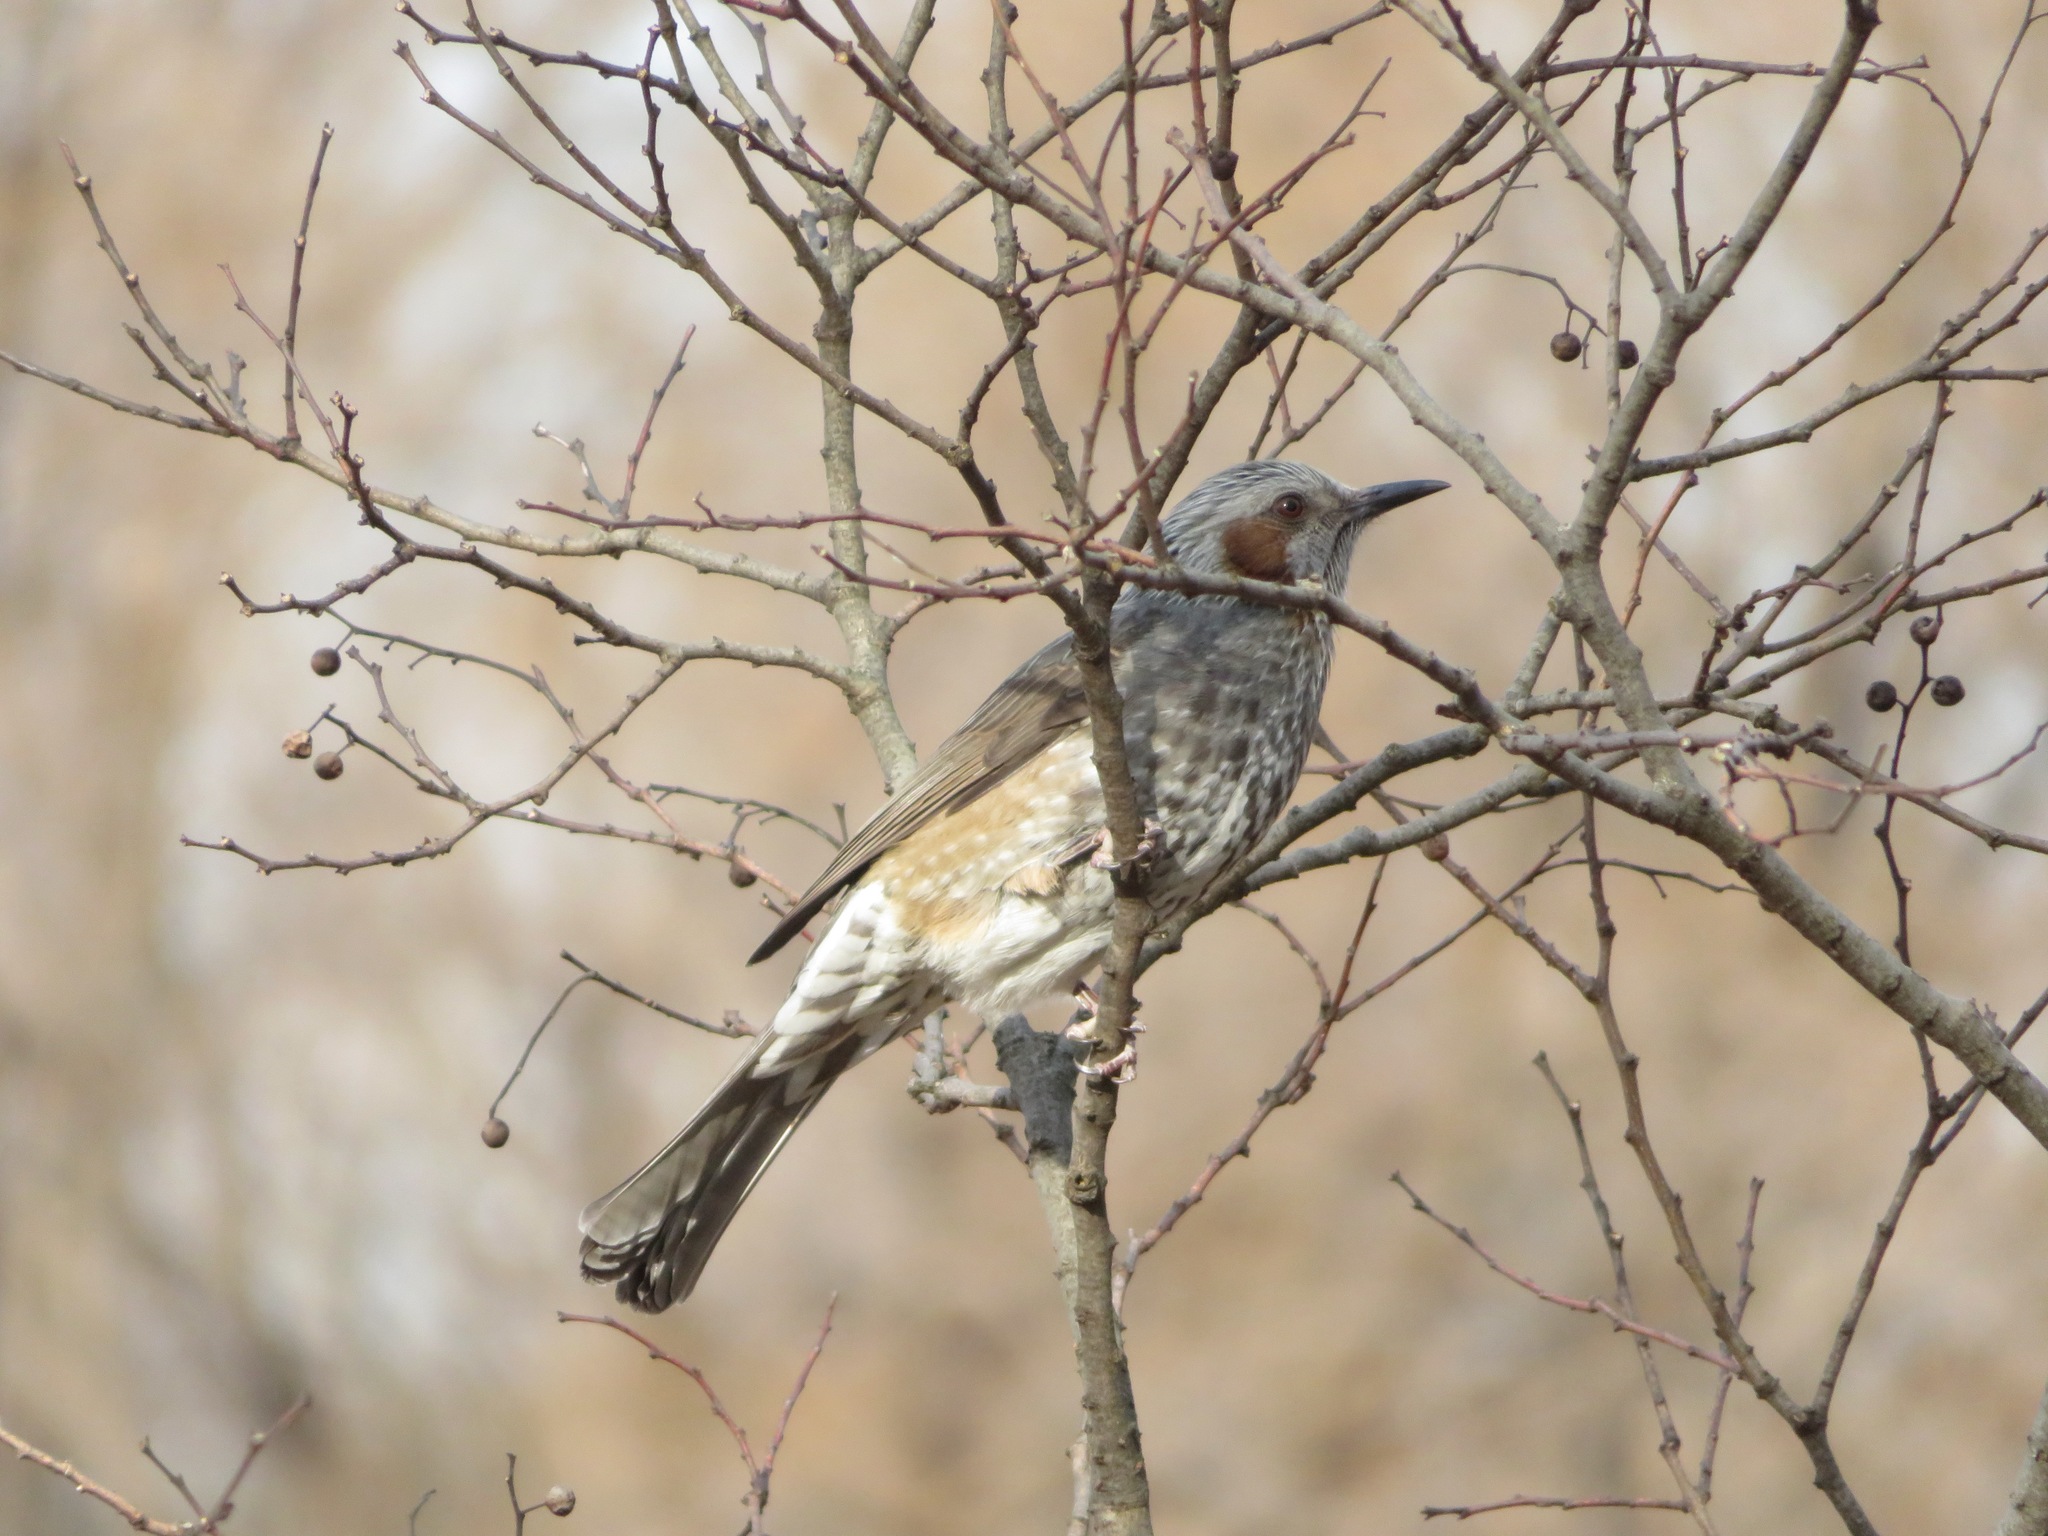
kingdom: Animalia
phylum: Chordata
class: Aves
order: Passeriformes
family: Pycnonotidae
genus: Hypsipetes
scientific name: Hypsipetes amaurotis
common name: Brown-eared bulbul
